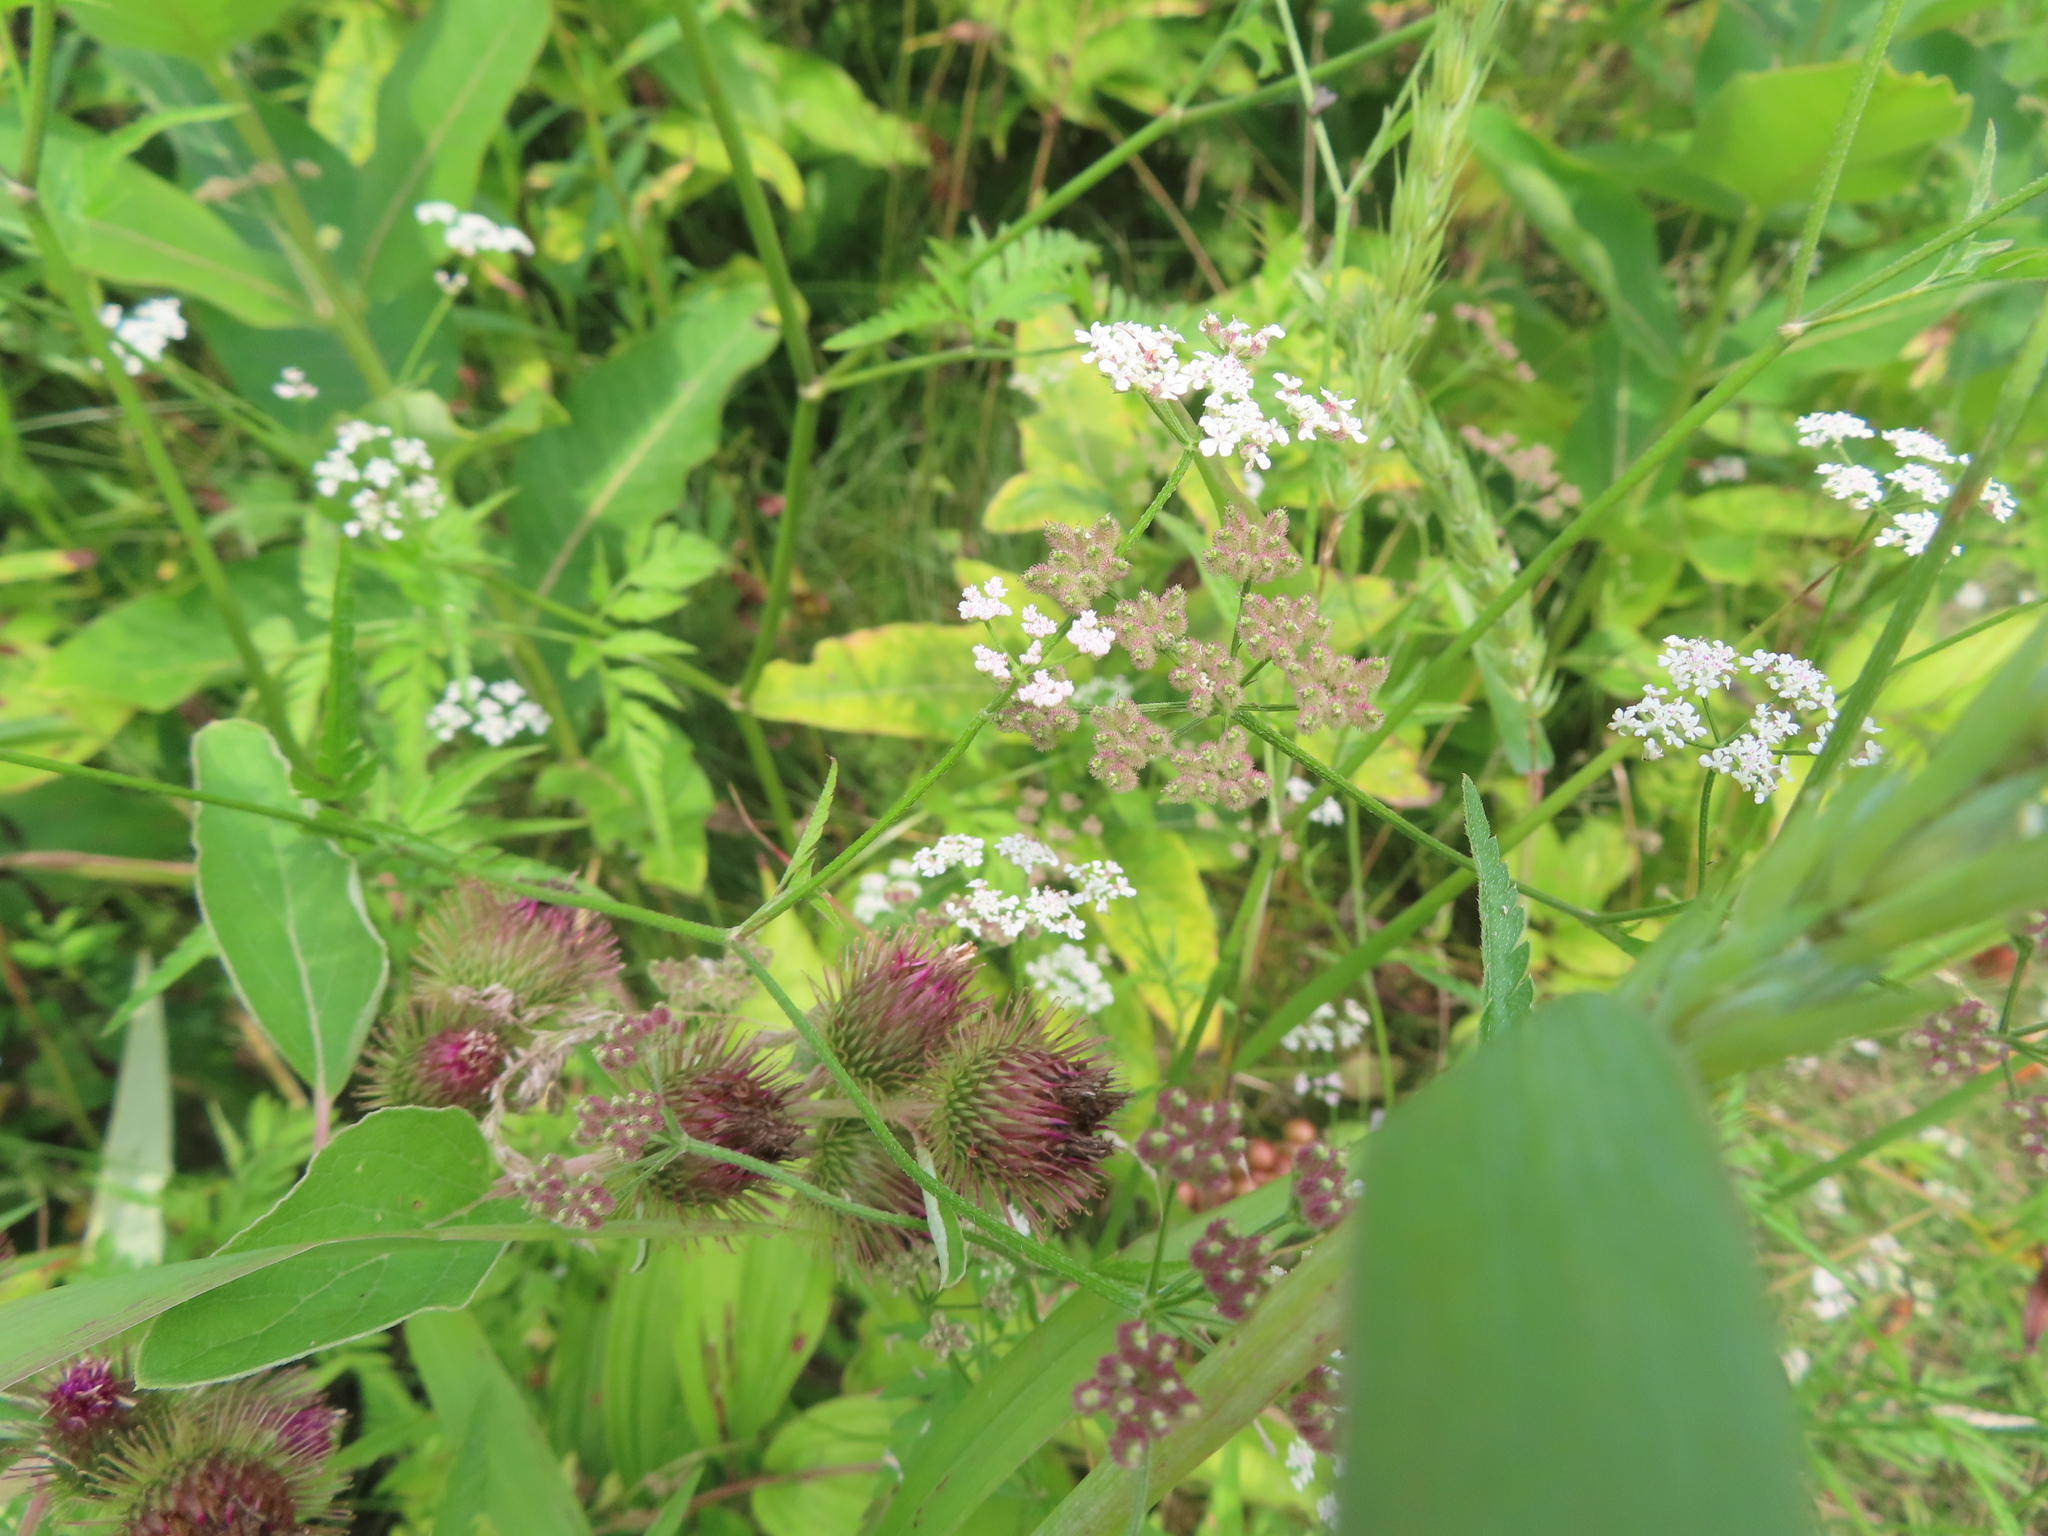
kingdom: Plantae
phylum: Tracheophyta
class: Magnoliopsida
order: Apiales
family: Apiaceae
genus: Torilis
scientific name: Torilis japonica
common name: Upright hedge-parsley
